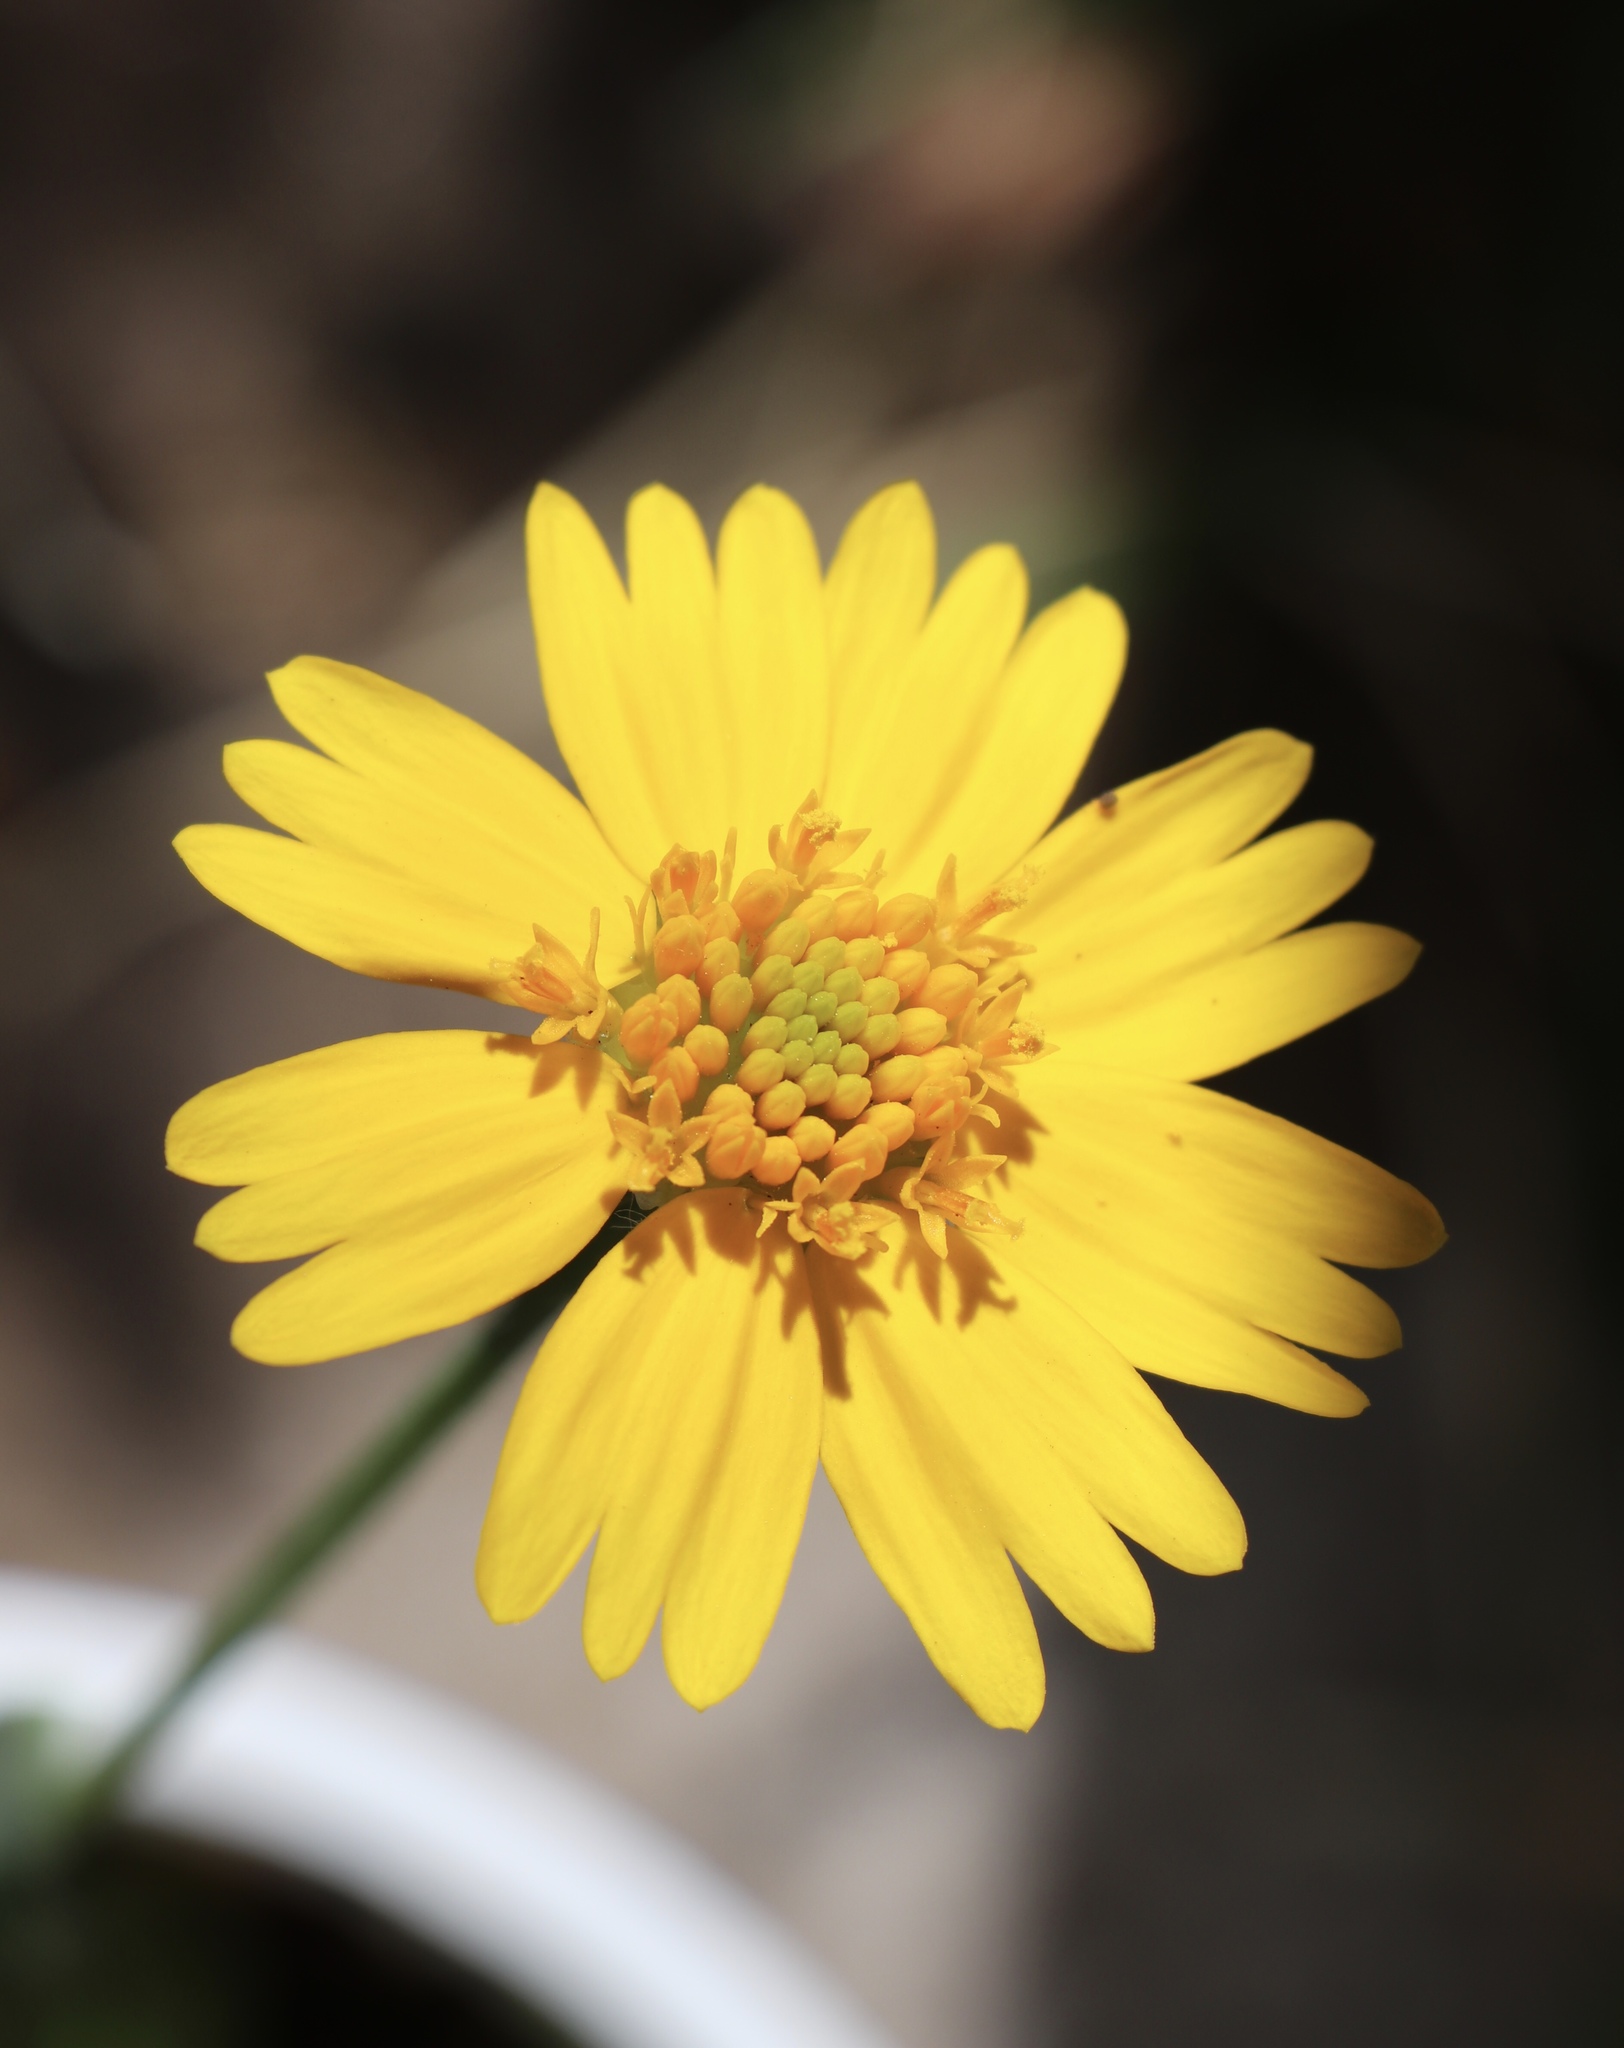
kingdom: Plantae
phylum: Tracheophyta
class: Magnoliopsida
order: Asterales
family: Asteraceae
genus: Amblyolepis
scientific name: Amblyolepis setigera
